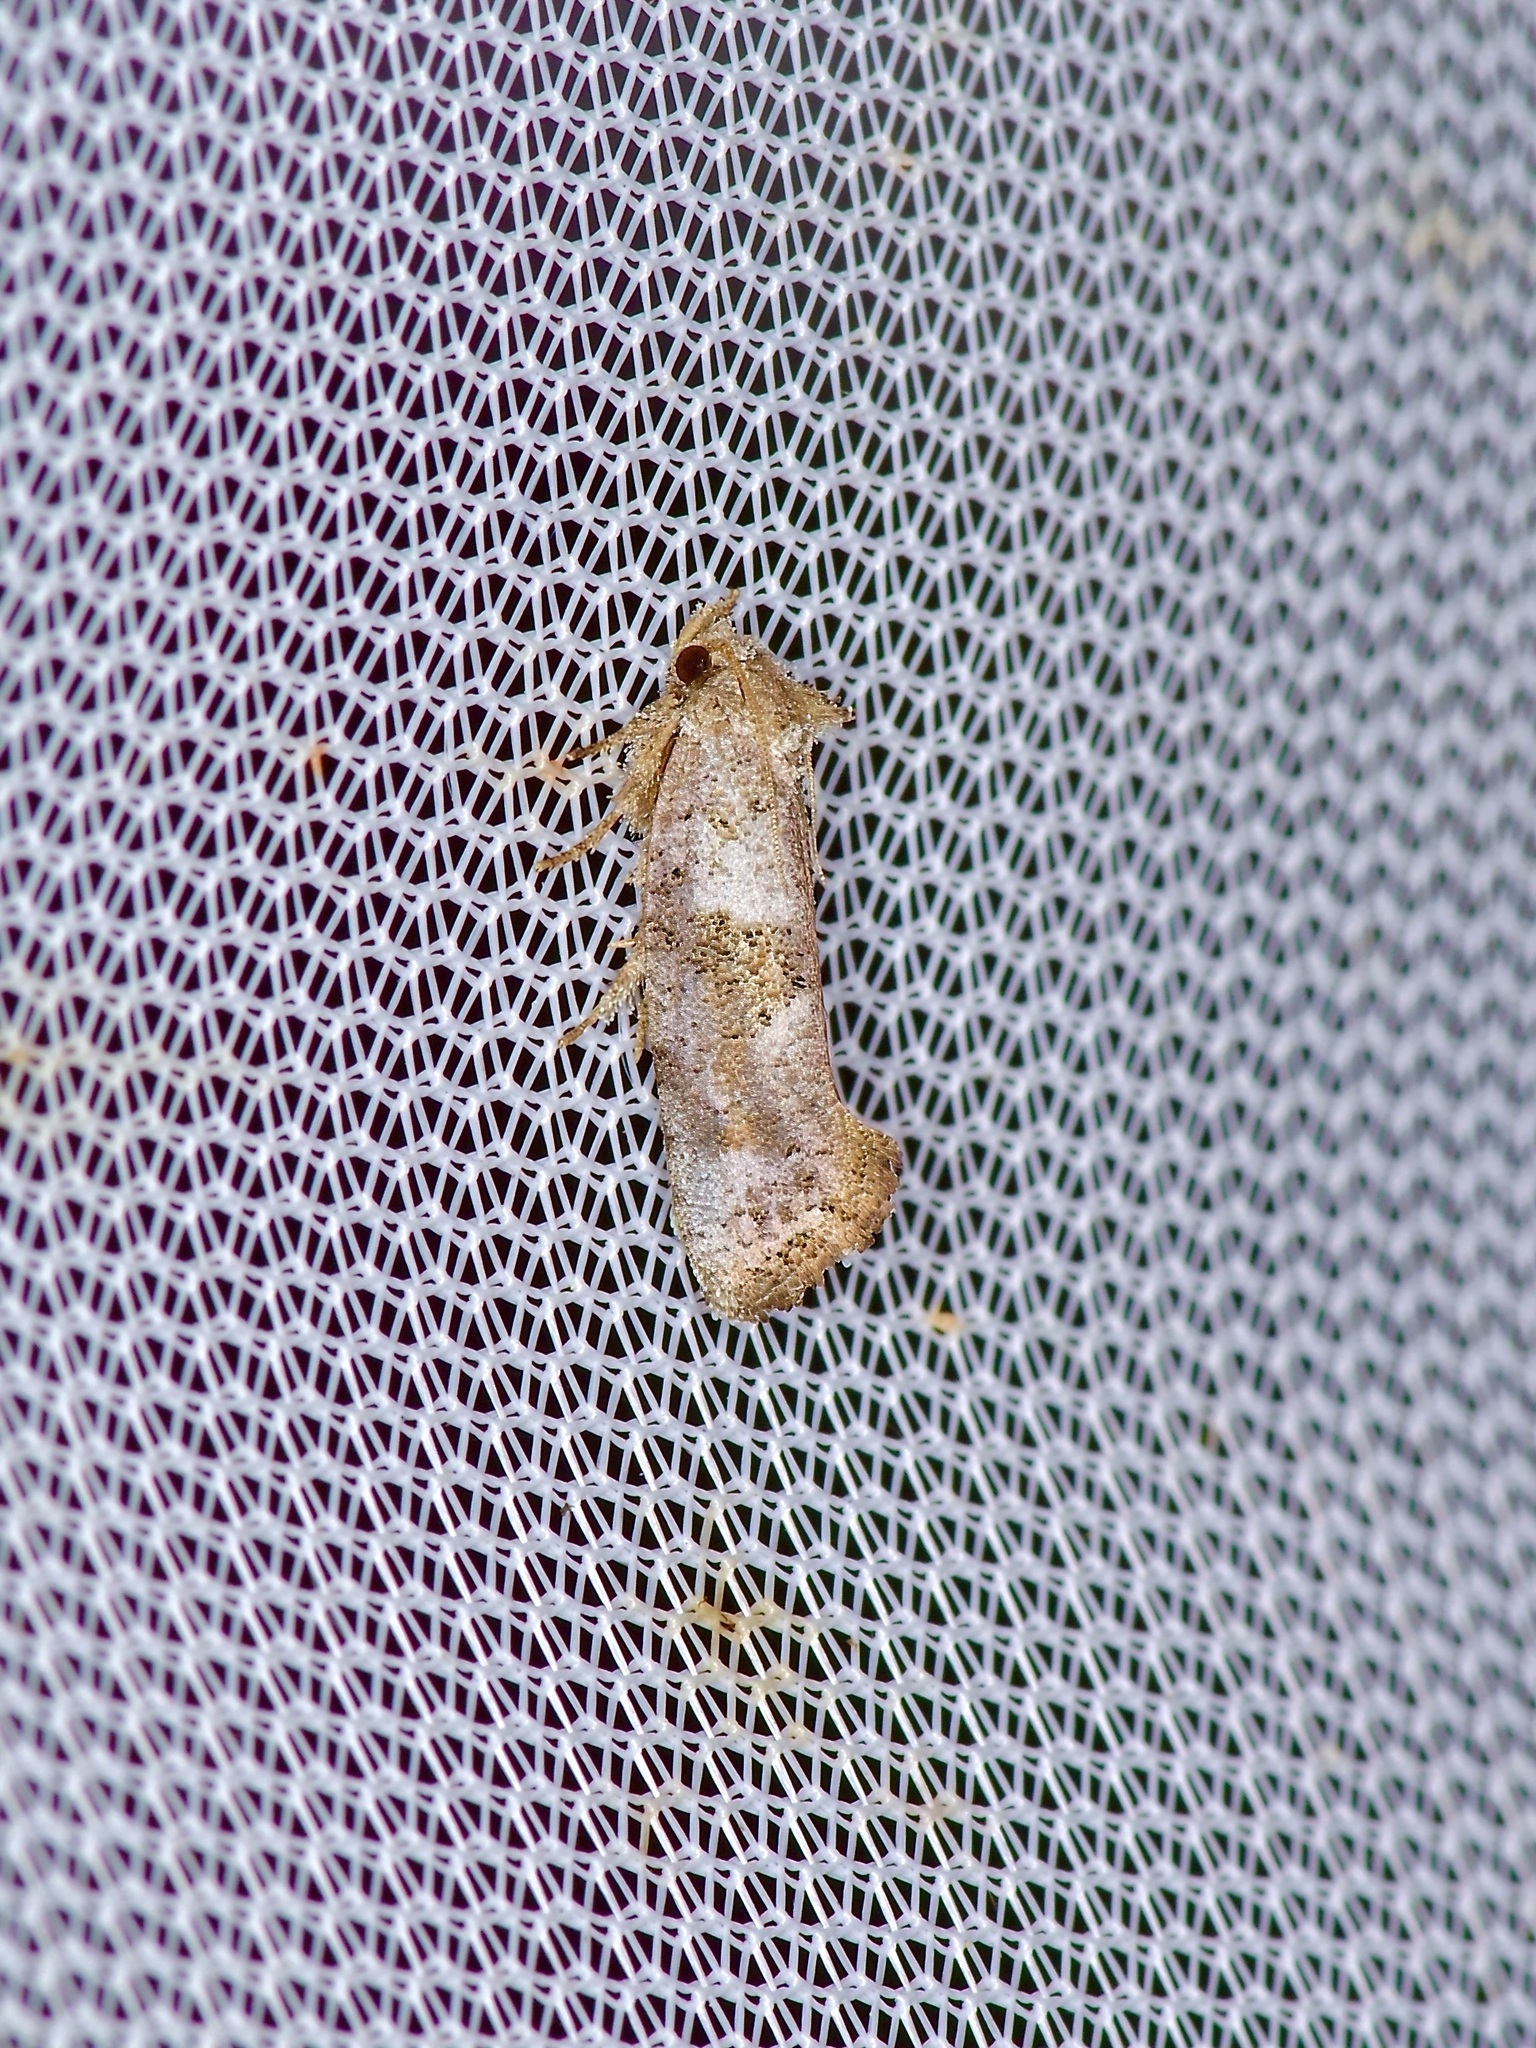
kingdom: Animalia
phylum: Arthropoda
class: Insecta
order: Lepidoptera
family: Tineidae
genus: Acrolophus
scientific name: Acrolophus piger
